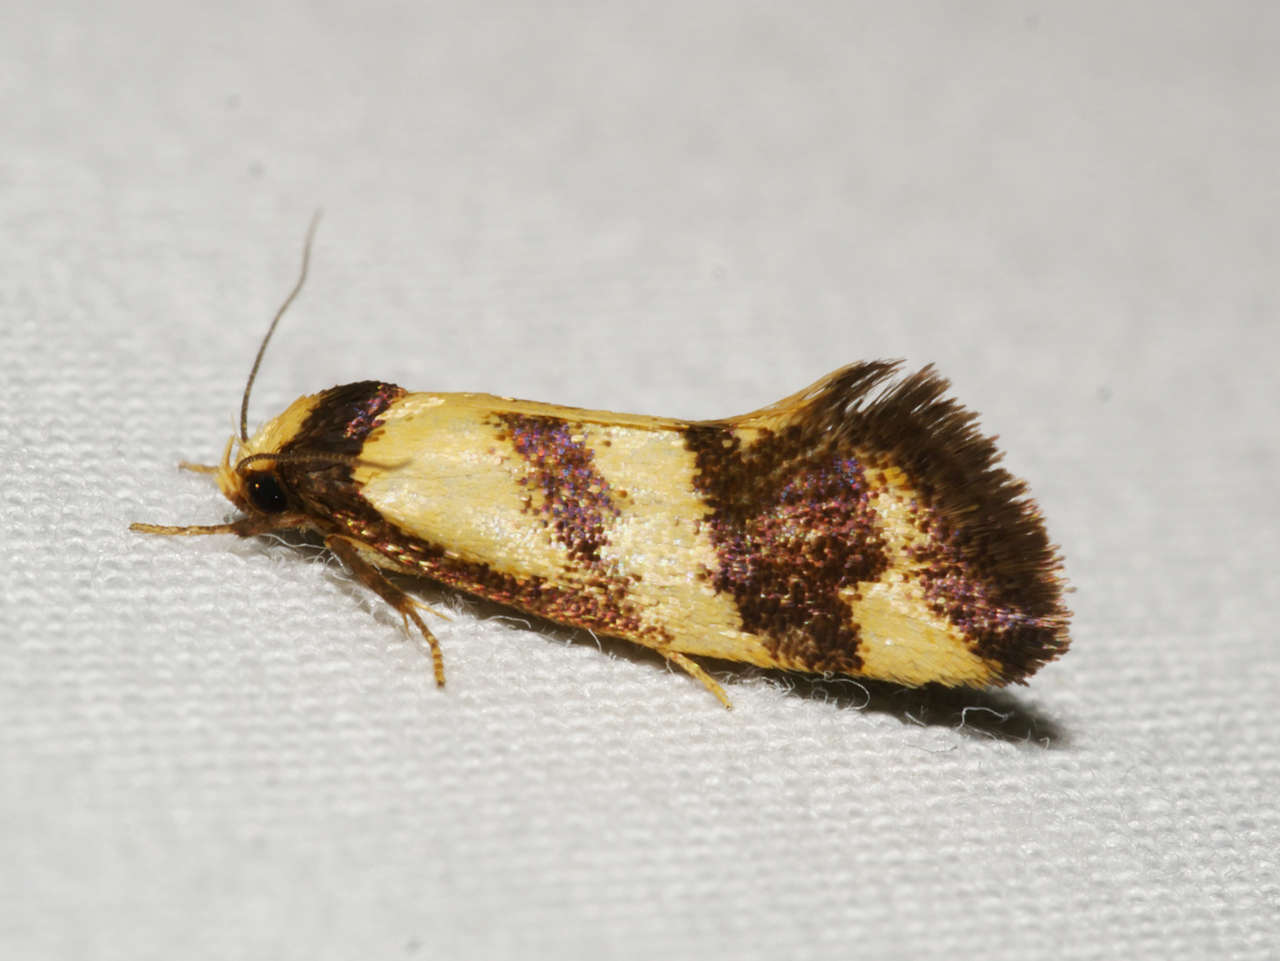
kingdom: Animalia
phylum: Arthropoda
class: Insecta
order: Lepidoptera
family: Oecophoridae
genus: Olbonoma
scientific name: Olbonoma triptycha
